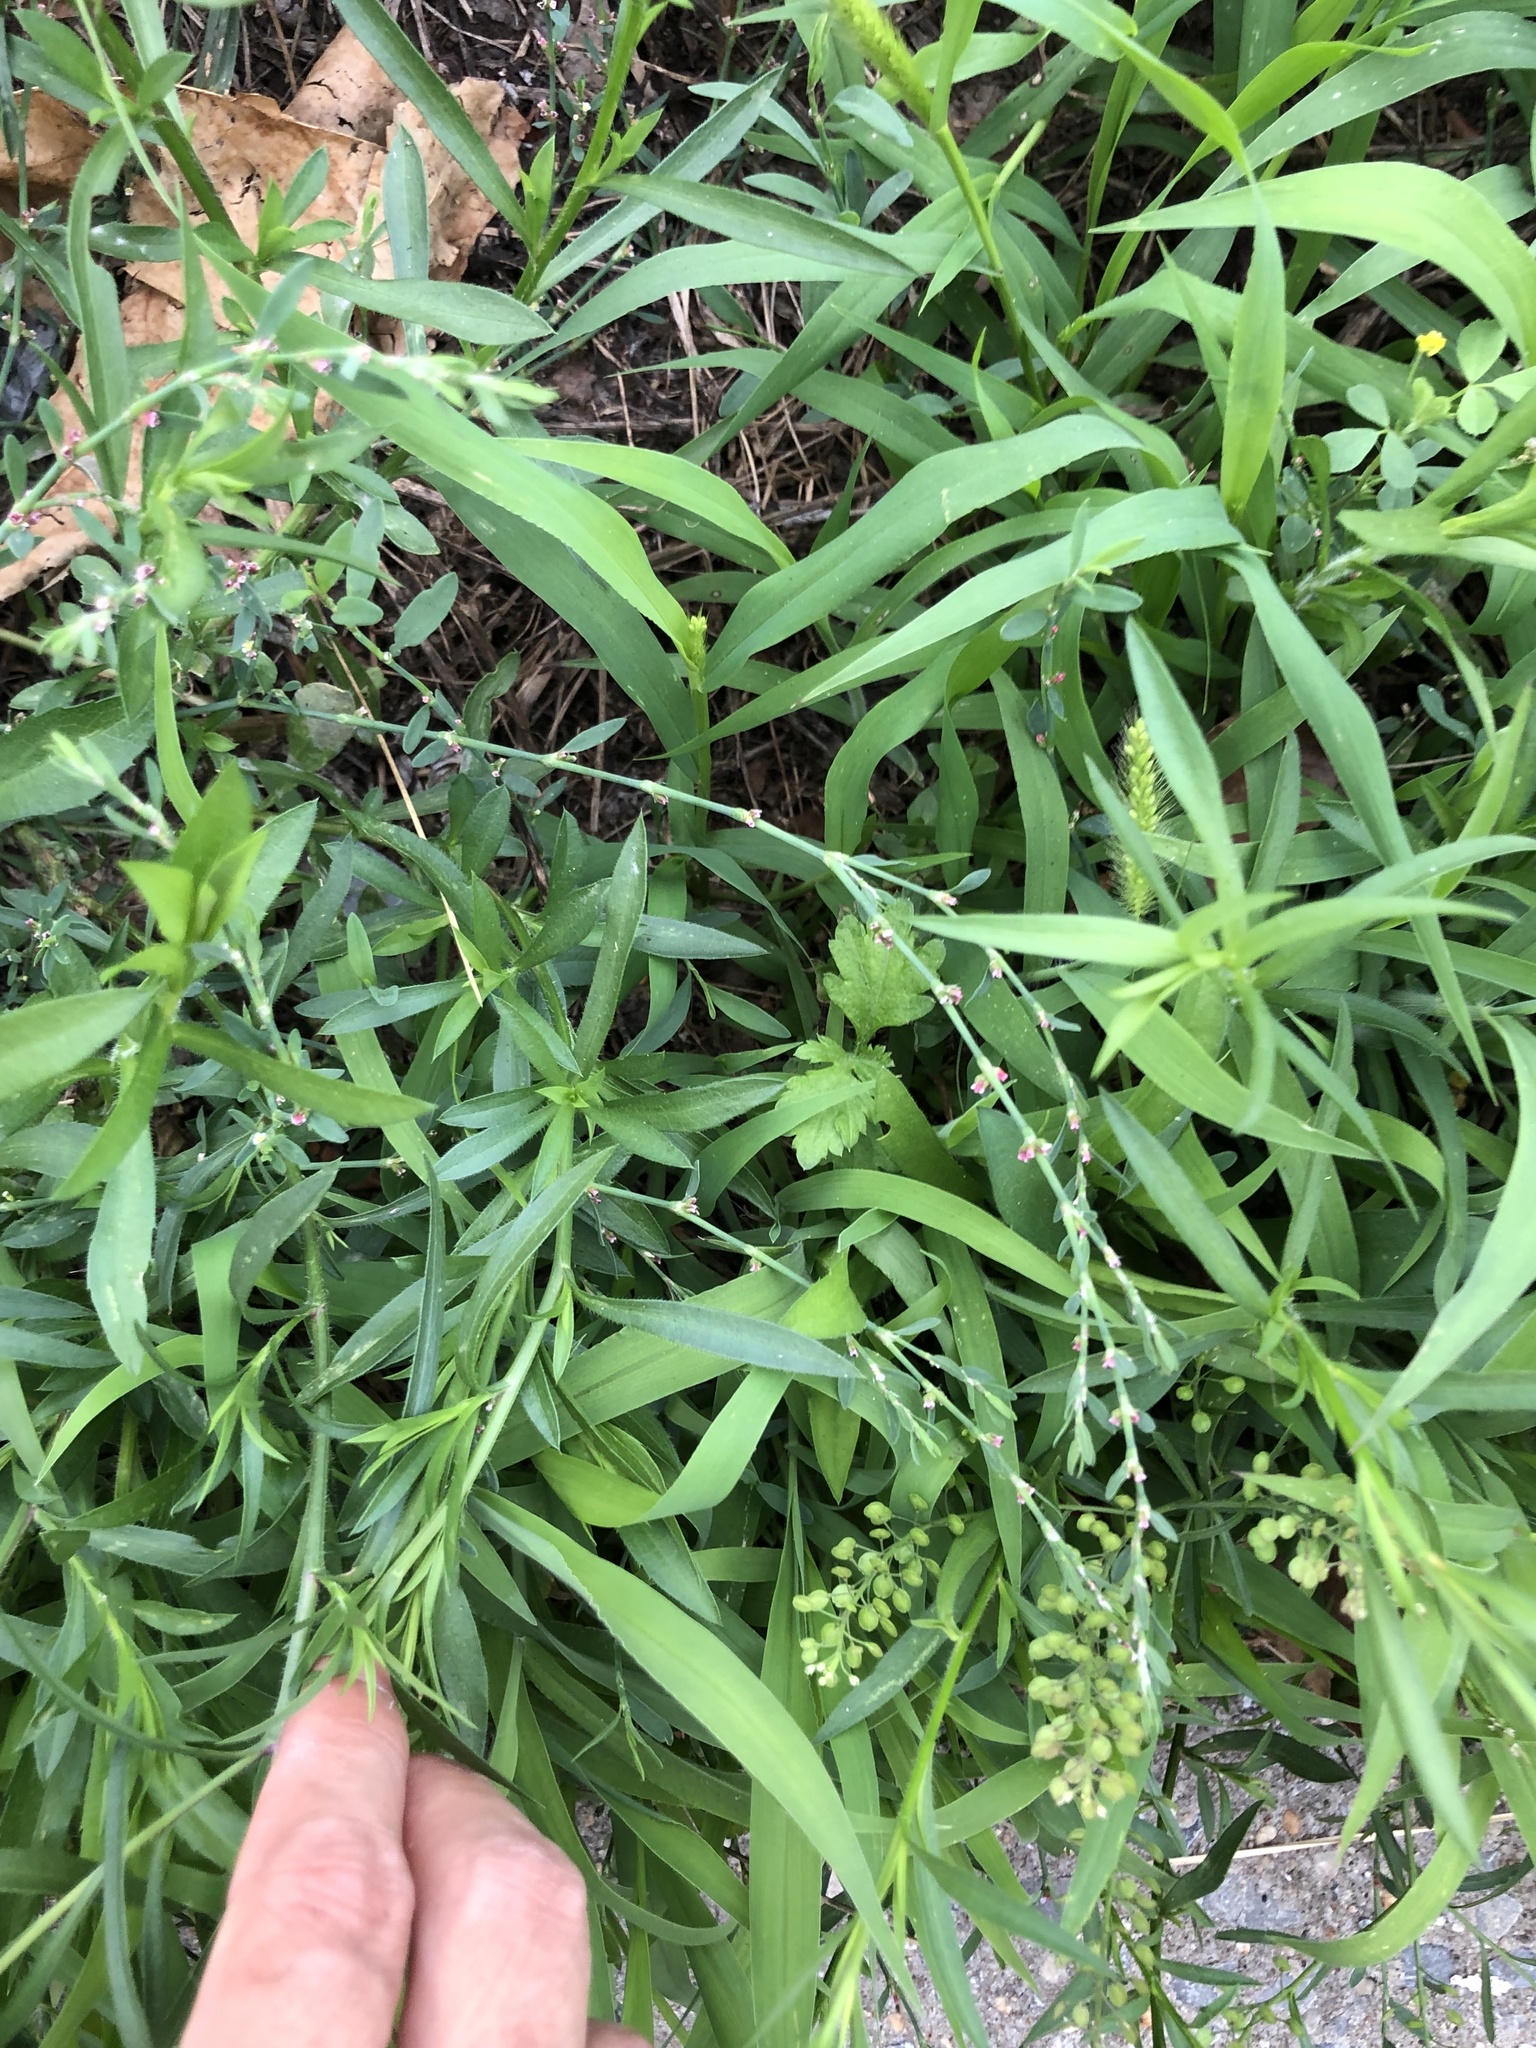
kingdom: Plantae
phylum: Tracheophyta
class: Magnoliopsida
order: Caryophyllales
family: Polygonaceae
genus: Polygonum
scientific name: Polygonum aviculare
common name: Prostrate knotweed
